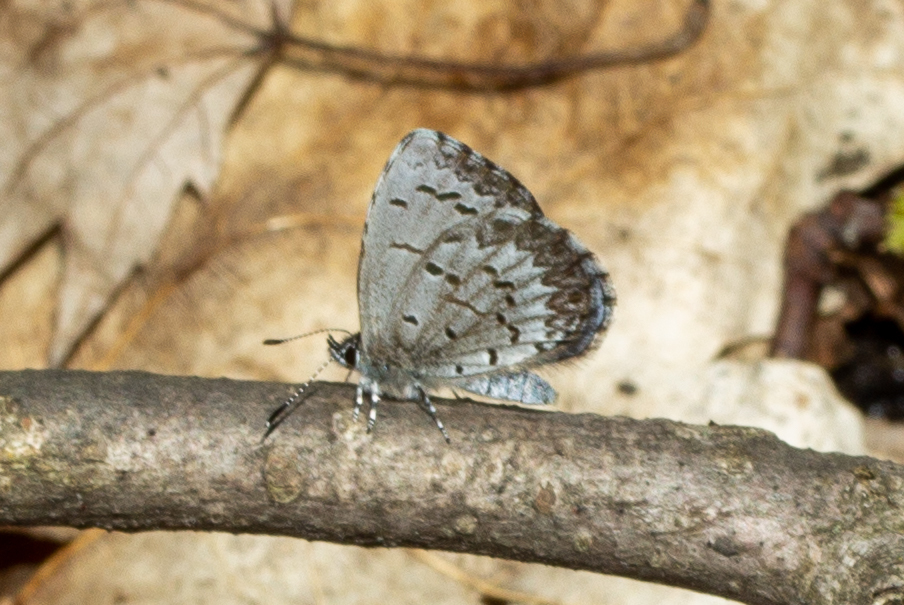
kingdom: Animalia
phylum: Arthropoda
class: Insecta
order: Lepidoptera
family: Lycaenidae
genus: Celastrina
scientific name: Celastrina lucia
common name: Lucia azure
